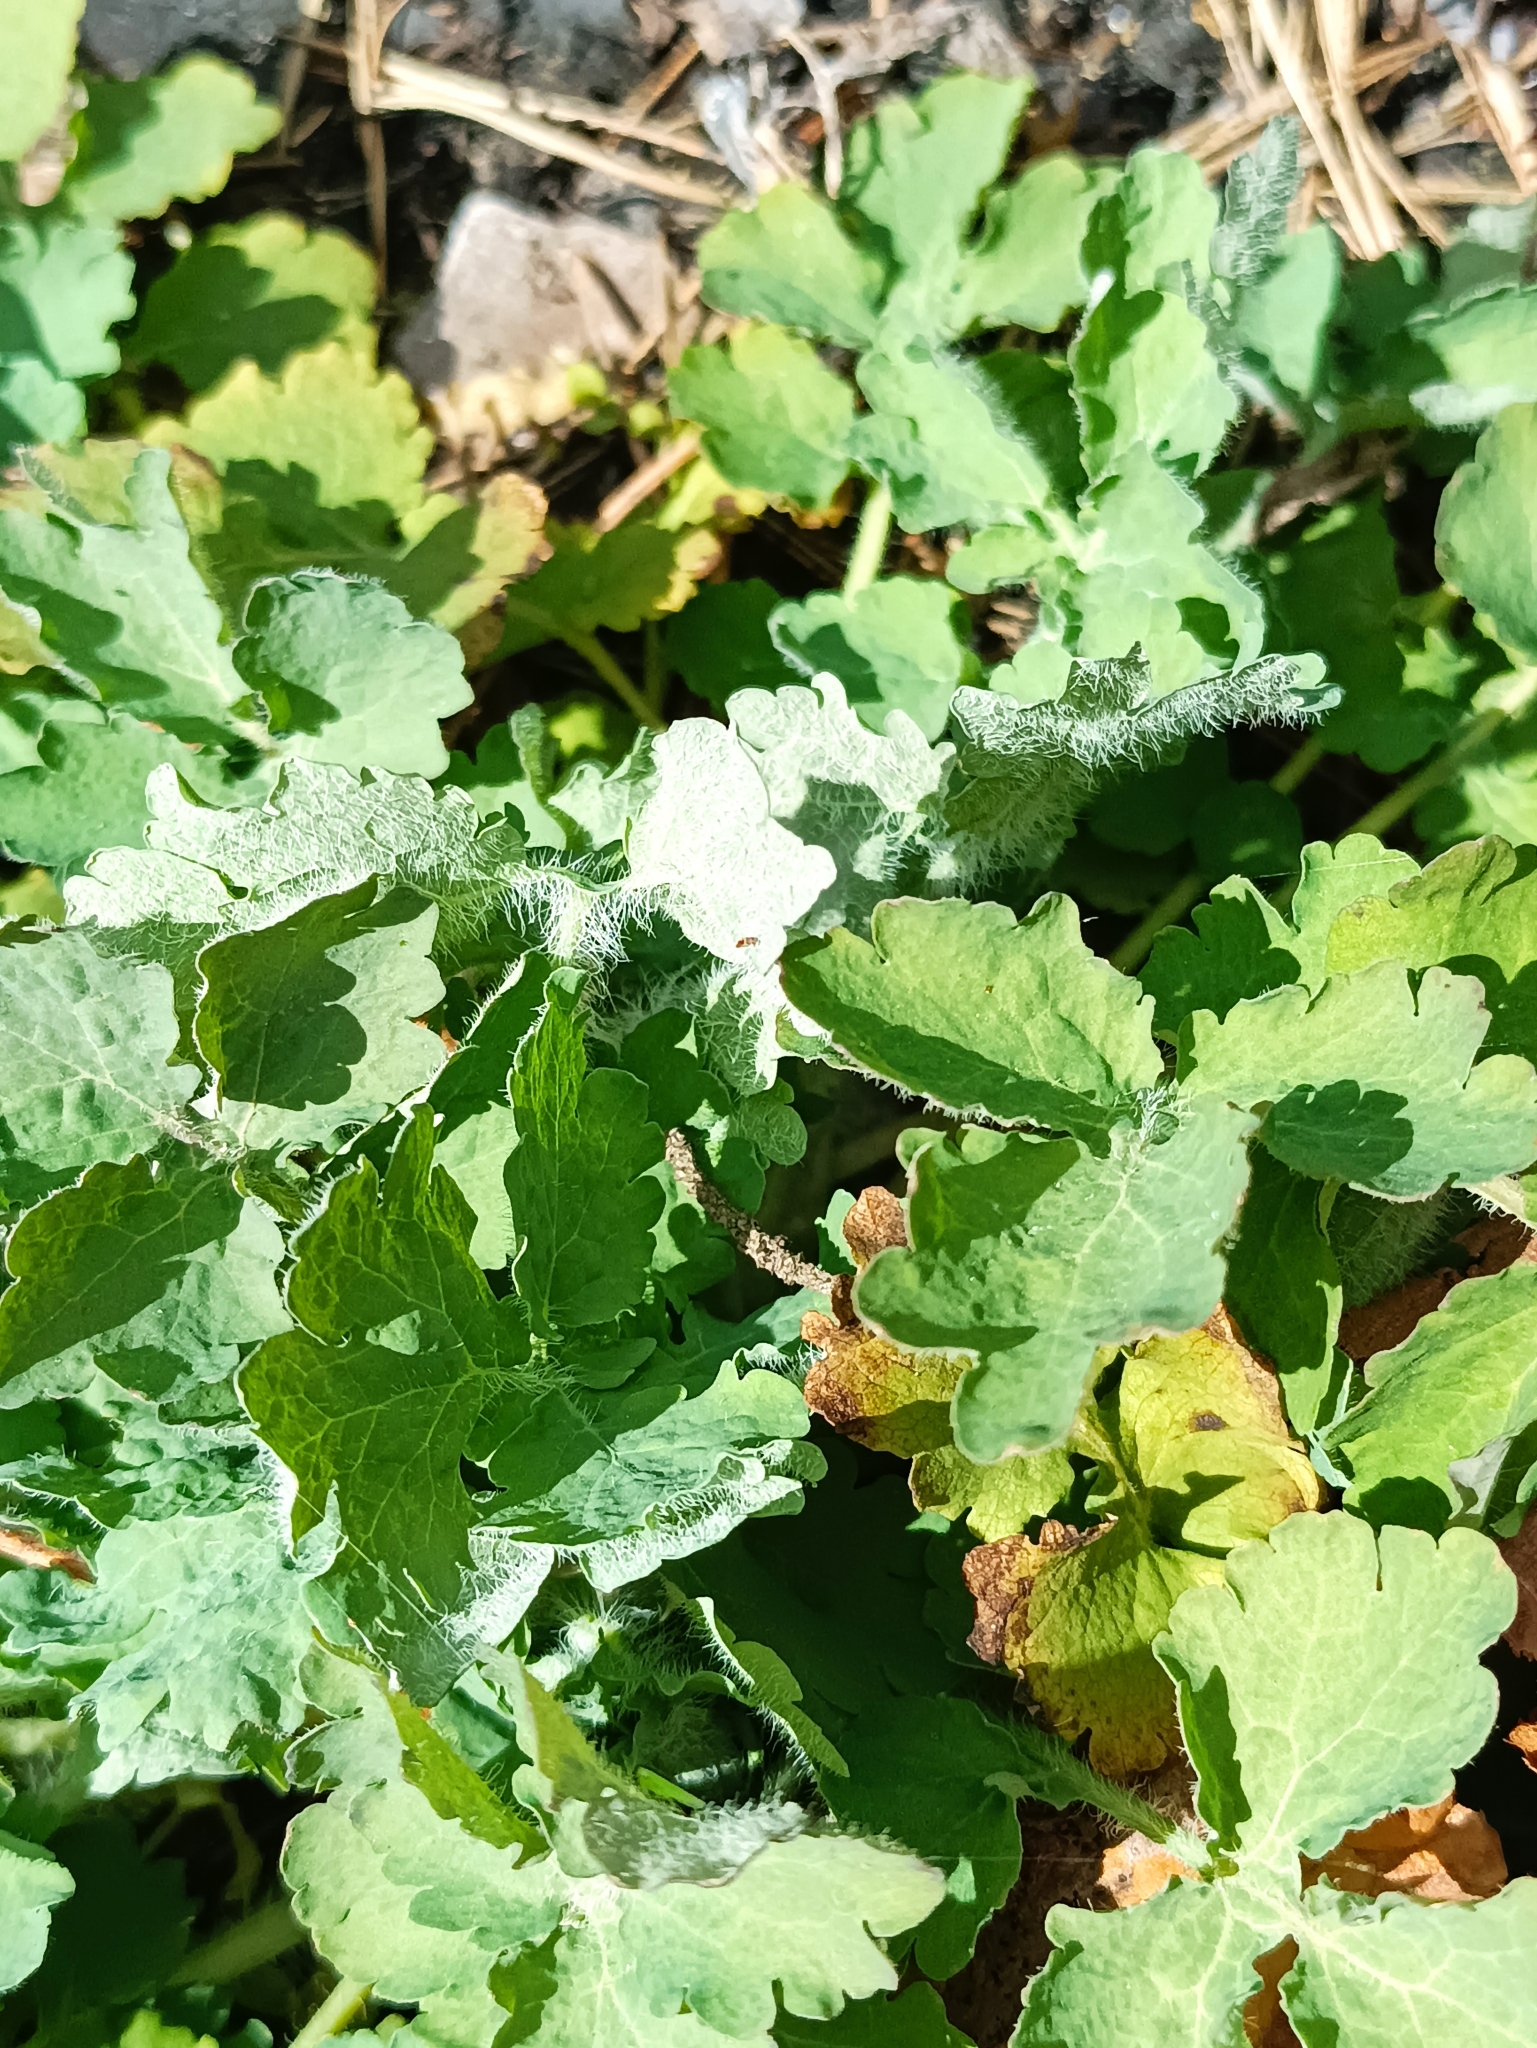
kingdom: Plantae
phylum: Tracheophyta
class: Magnoliopsida
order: Ranunculales
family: Papaveraceae
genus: Chelidonium
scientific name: Chelidonium majus
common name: Greater celandine
